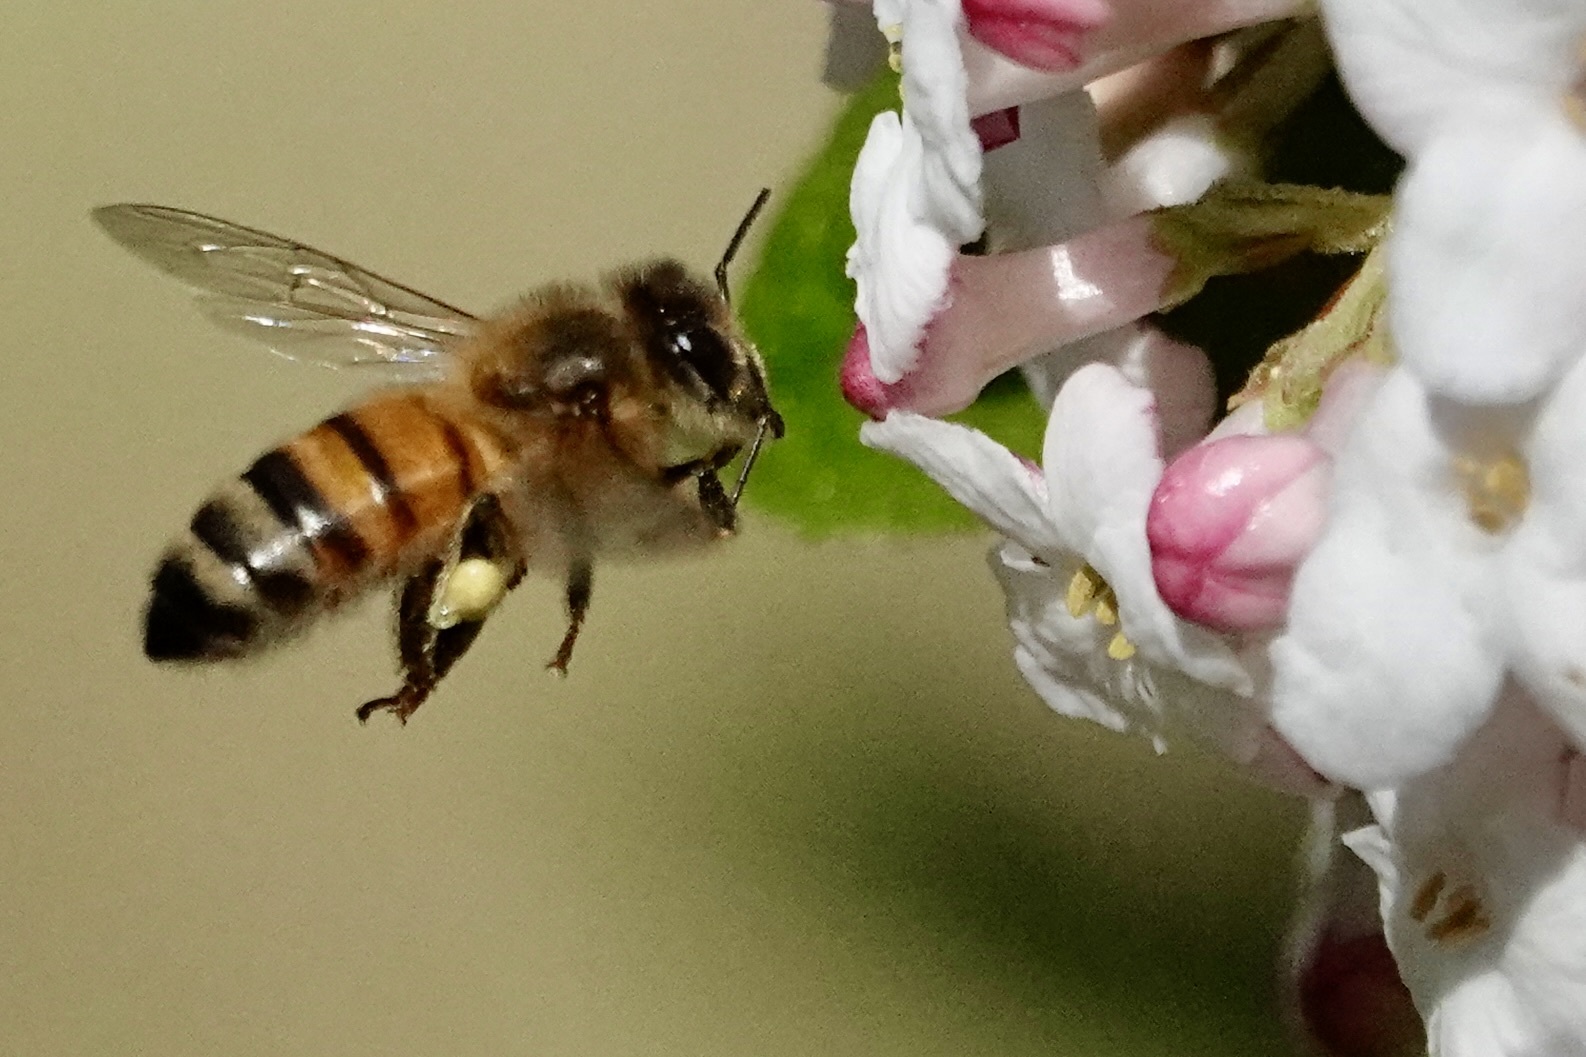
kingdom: Animalia
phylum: Arthropoda
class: Insecta
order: Hymenoptera
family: Apidae
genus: Apis
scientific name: Apis mellifera
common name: Honey bee
